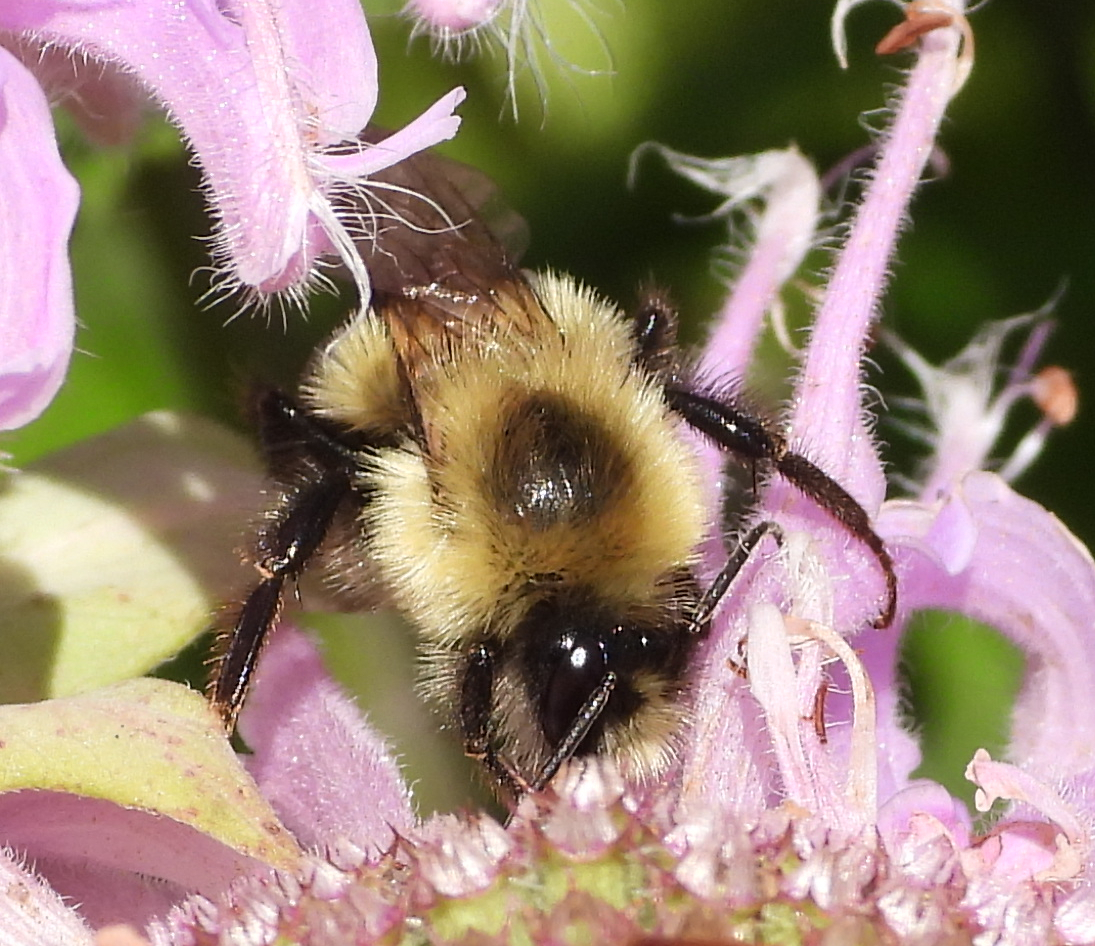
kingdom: Animalia
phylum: Arthropoda
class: Insecta
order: Hymenoptera
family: Apidae
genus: Bombus
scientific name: Bombus impatiens
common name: Common eastern bumble bee
